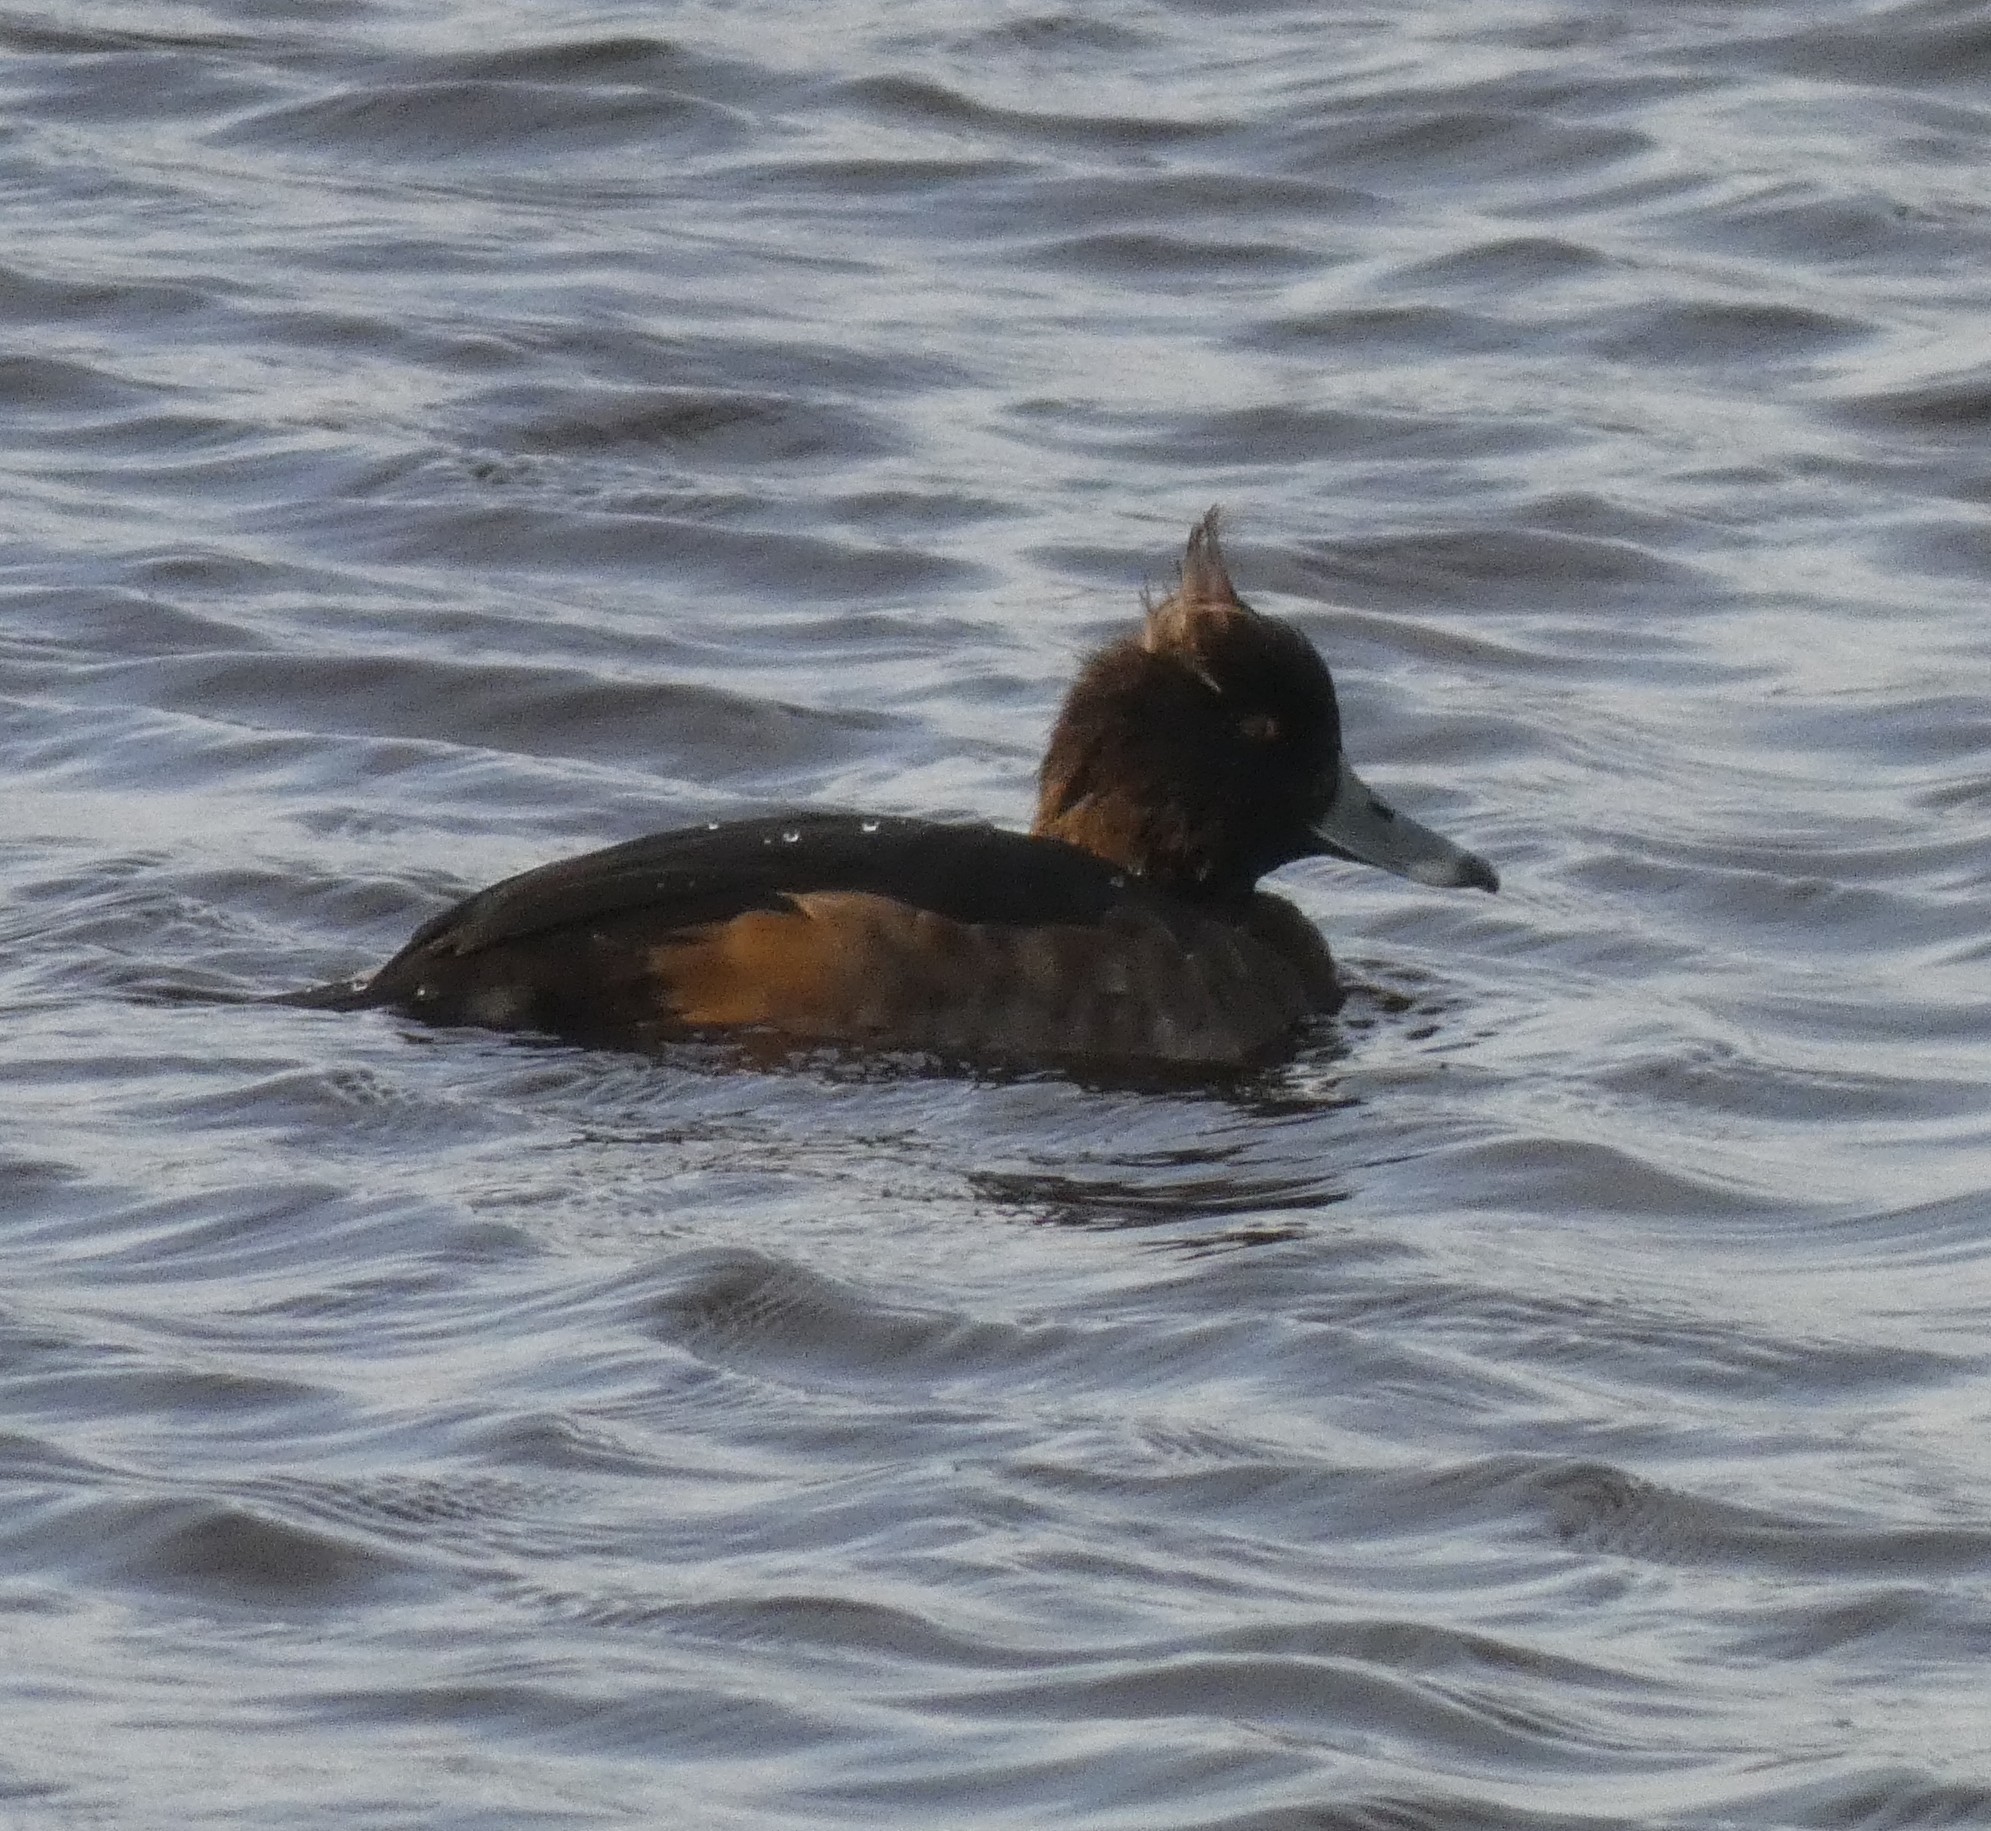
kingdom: Animalia
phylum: Chordata
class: Aves
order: Anseriformes
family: Anatidae
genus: Aythya
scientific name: Aythya fuligula
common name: Tufted duck
